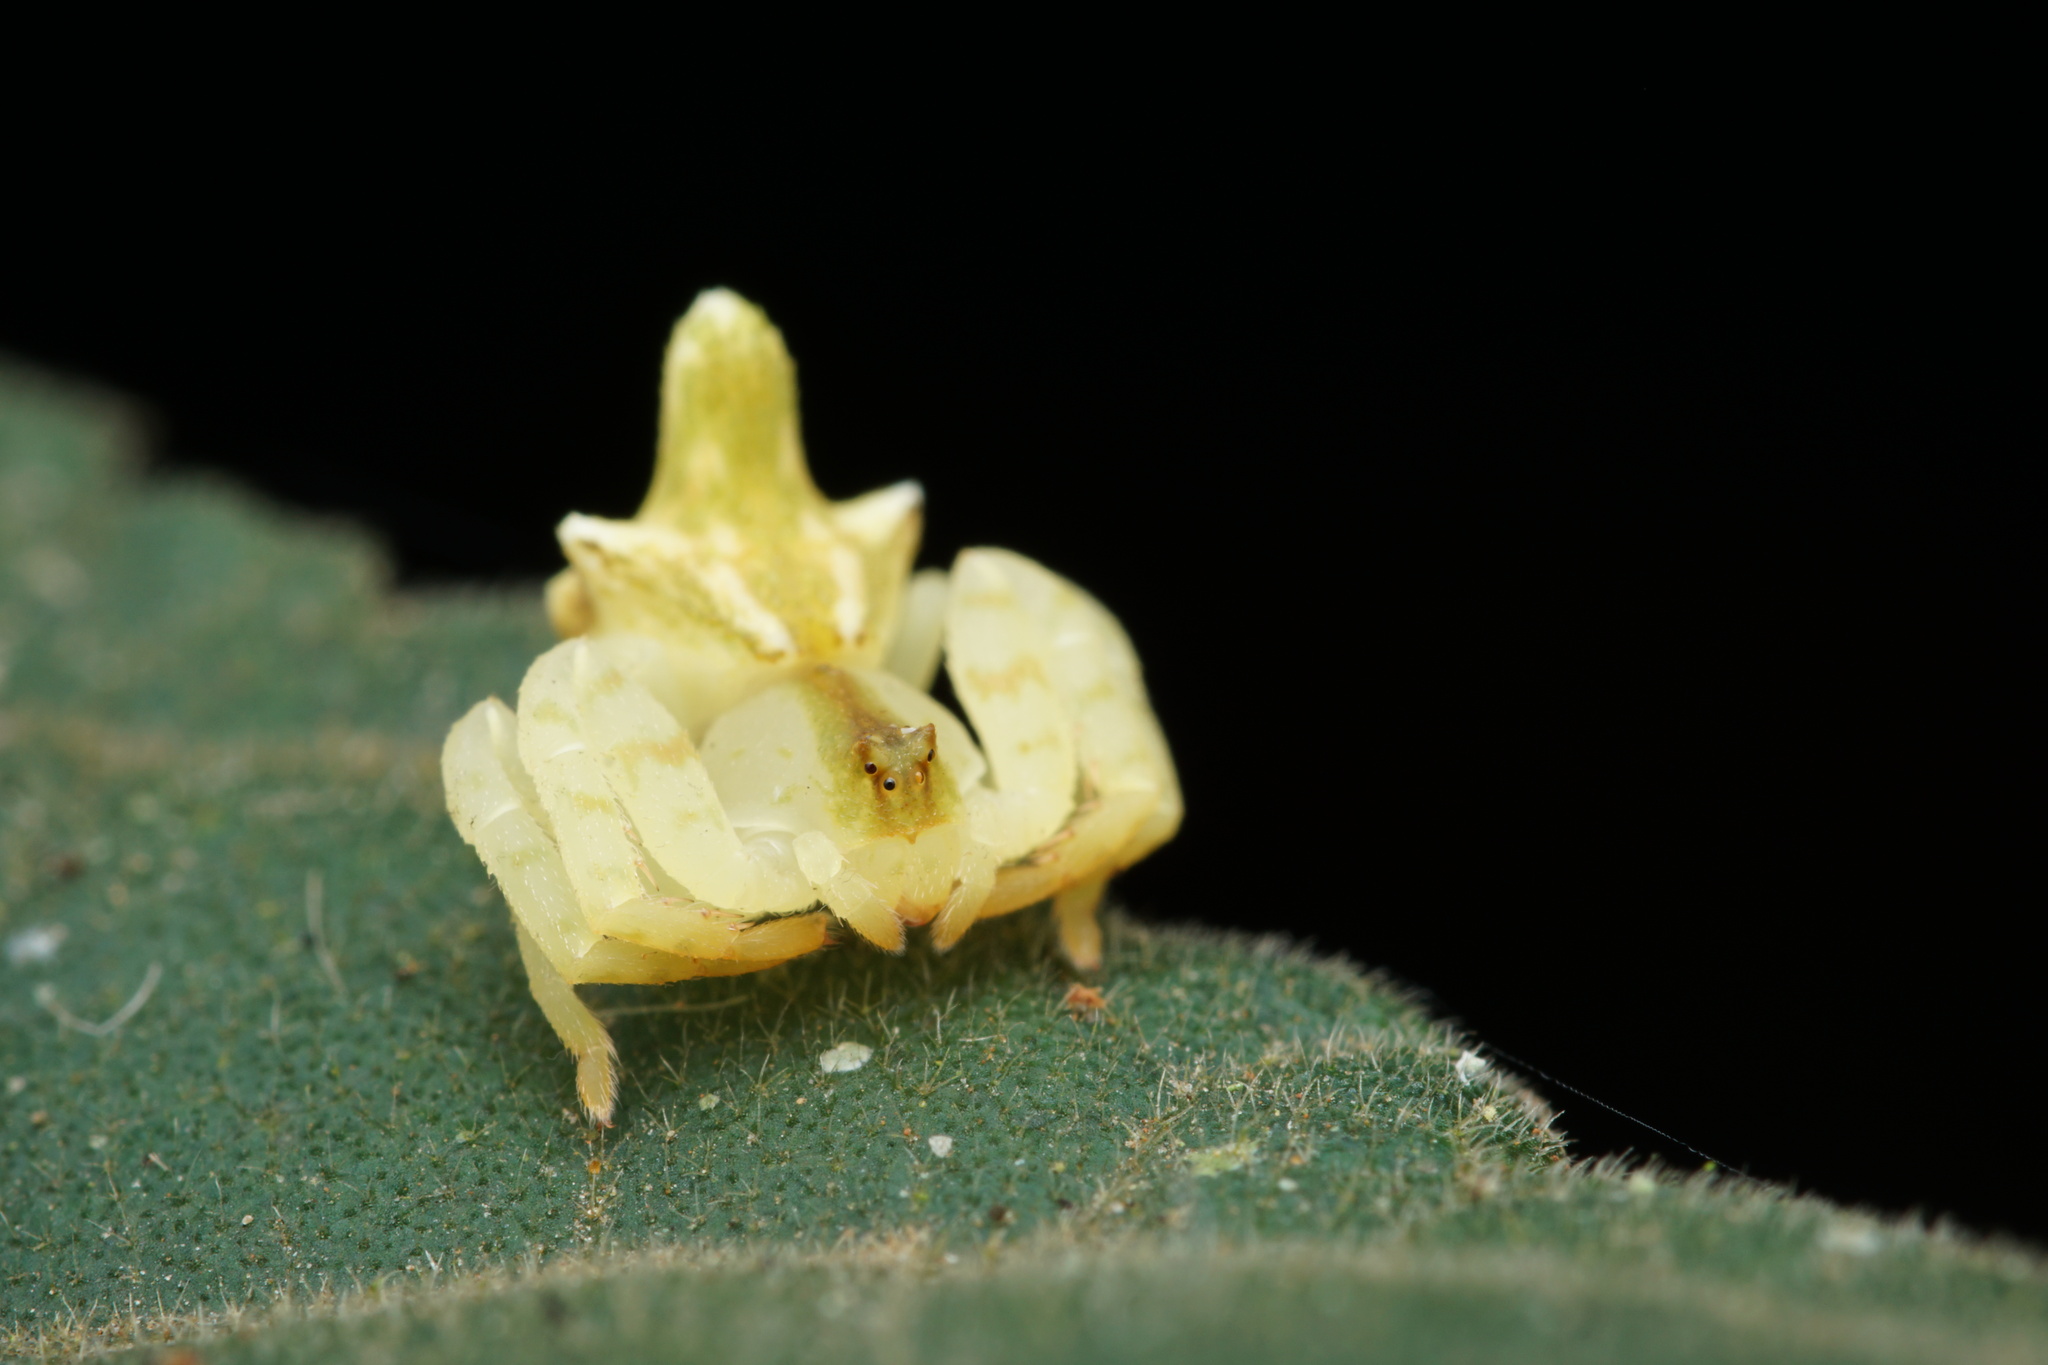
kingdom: Animalia
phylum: Arthropoda
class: Arachnida
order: Araneae
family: Thomisidae
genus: Epicadus
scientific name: Epicadus rubripes
